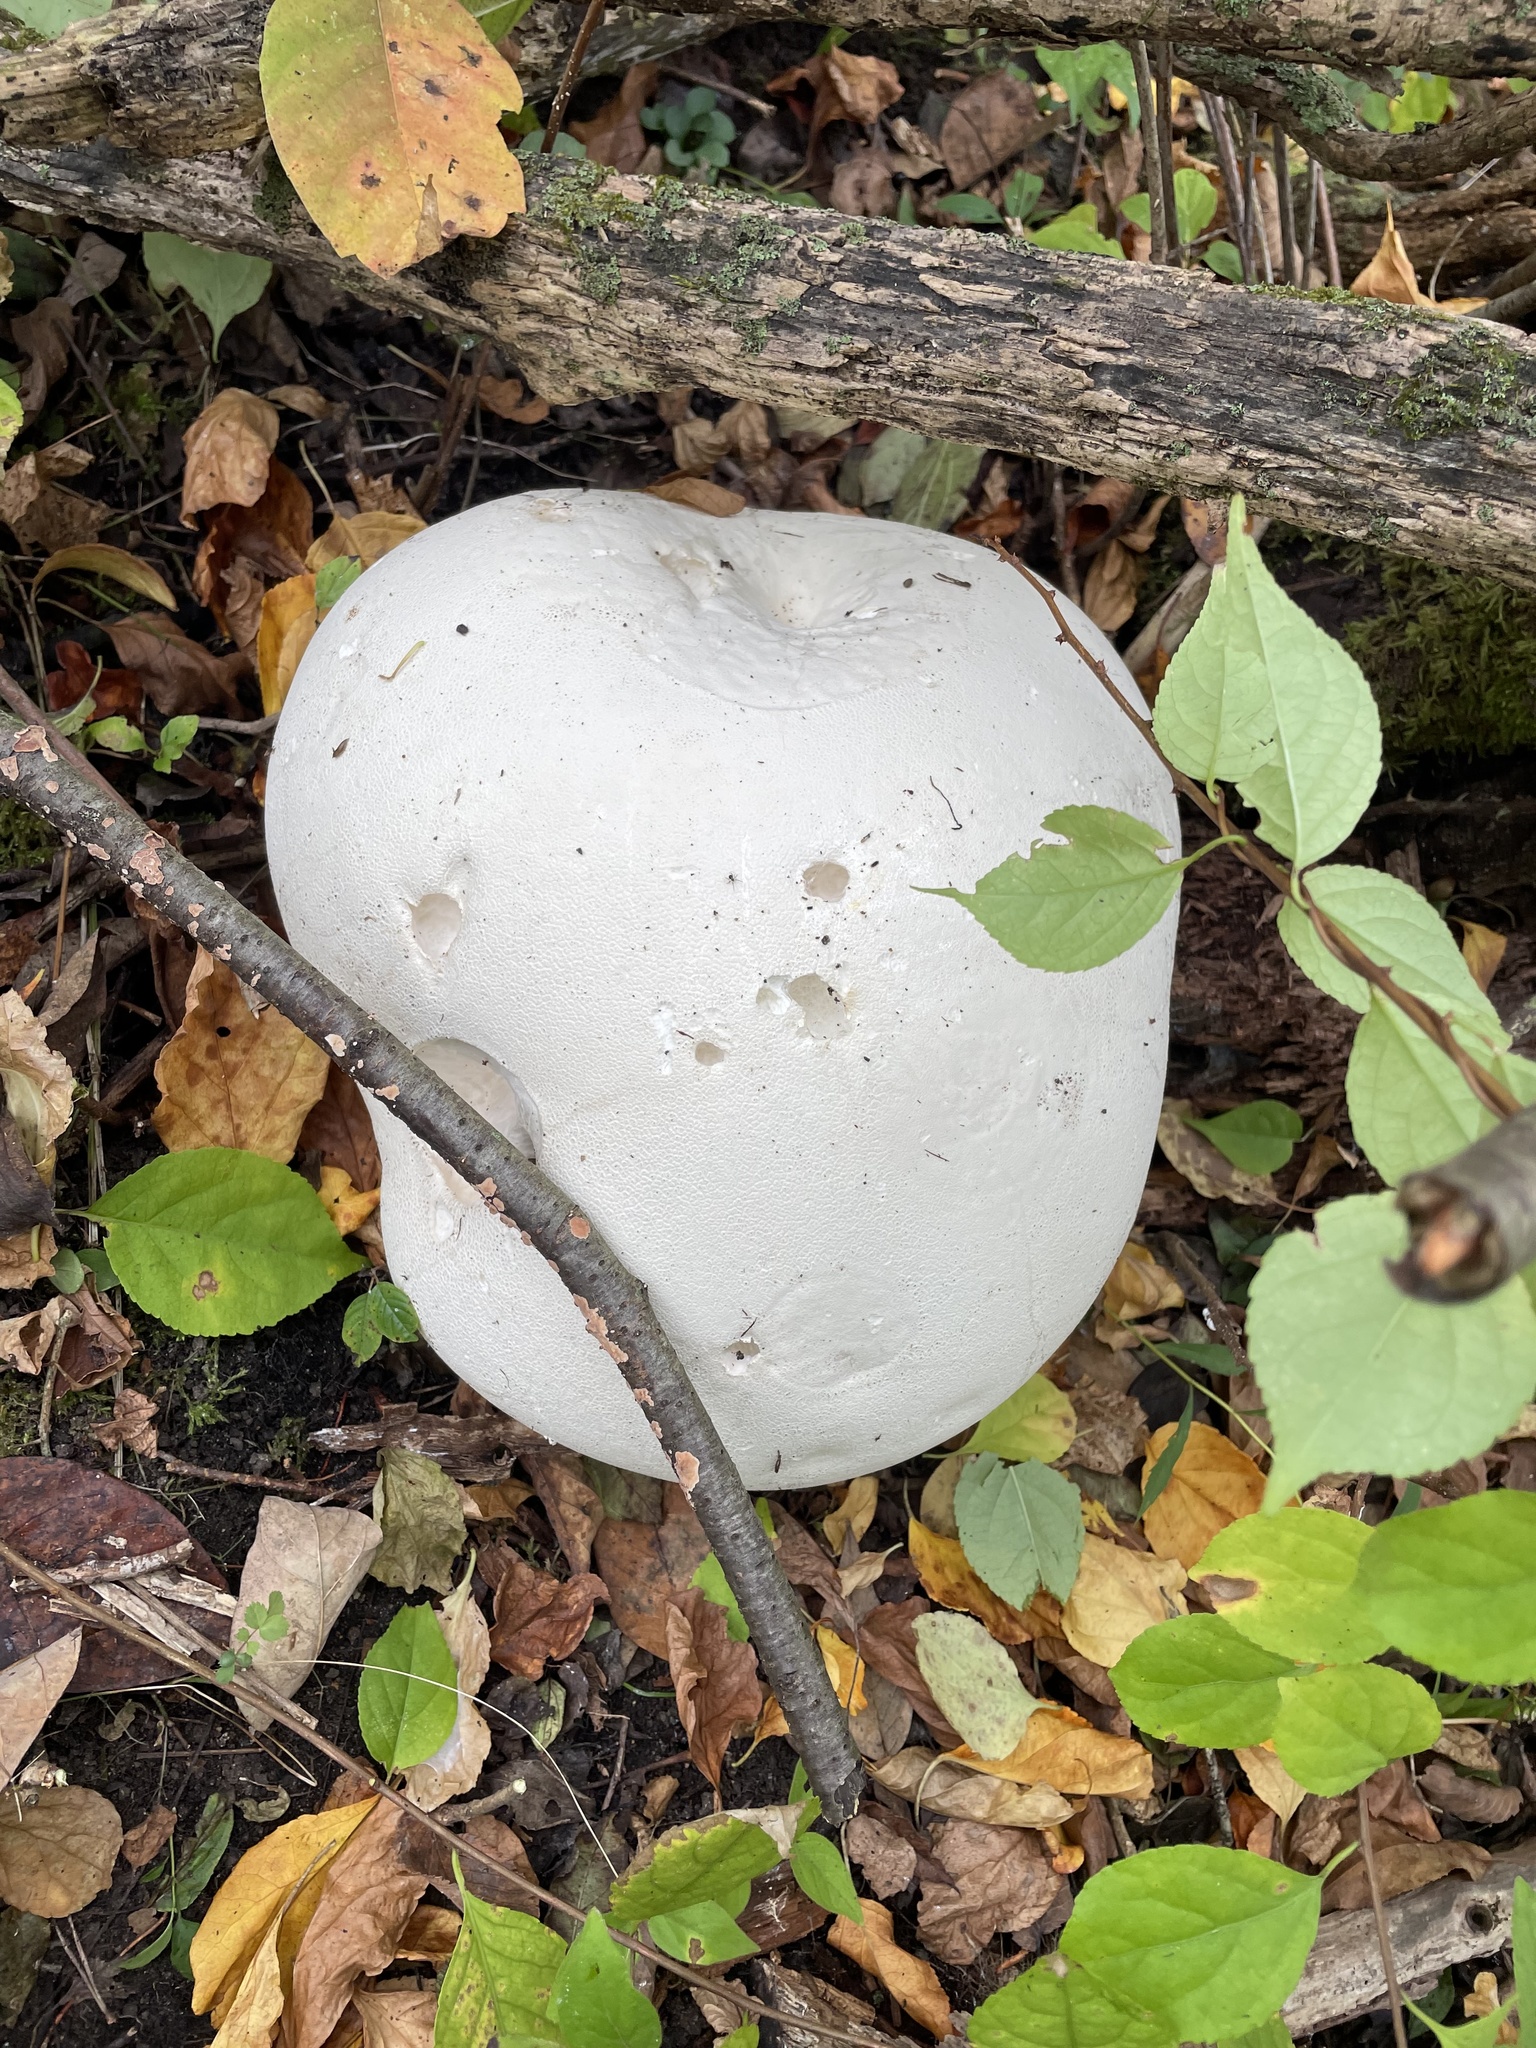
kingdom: Fungi
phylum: Basidiomycota
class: Agaricomycetes
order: Agaricales
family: Lycoperdaceae
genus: Calvatia
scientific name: Calvatia gigantea
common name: Giant puffball
